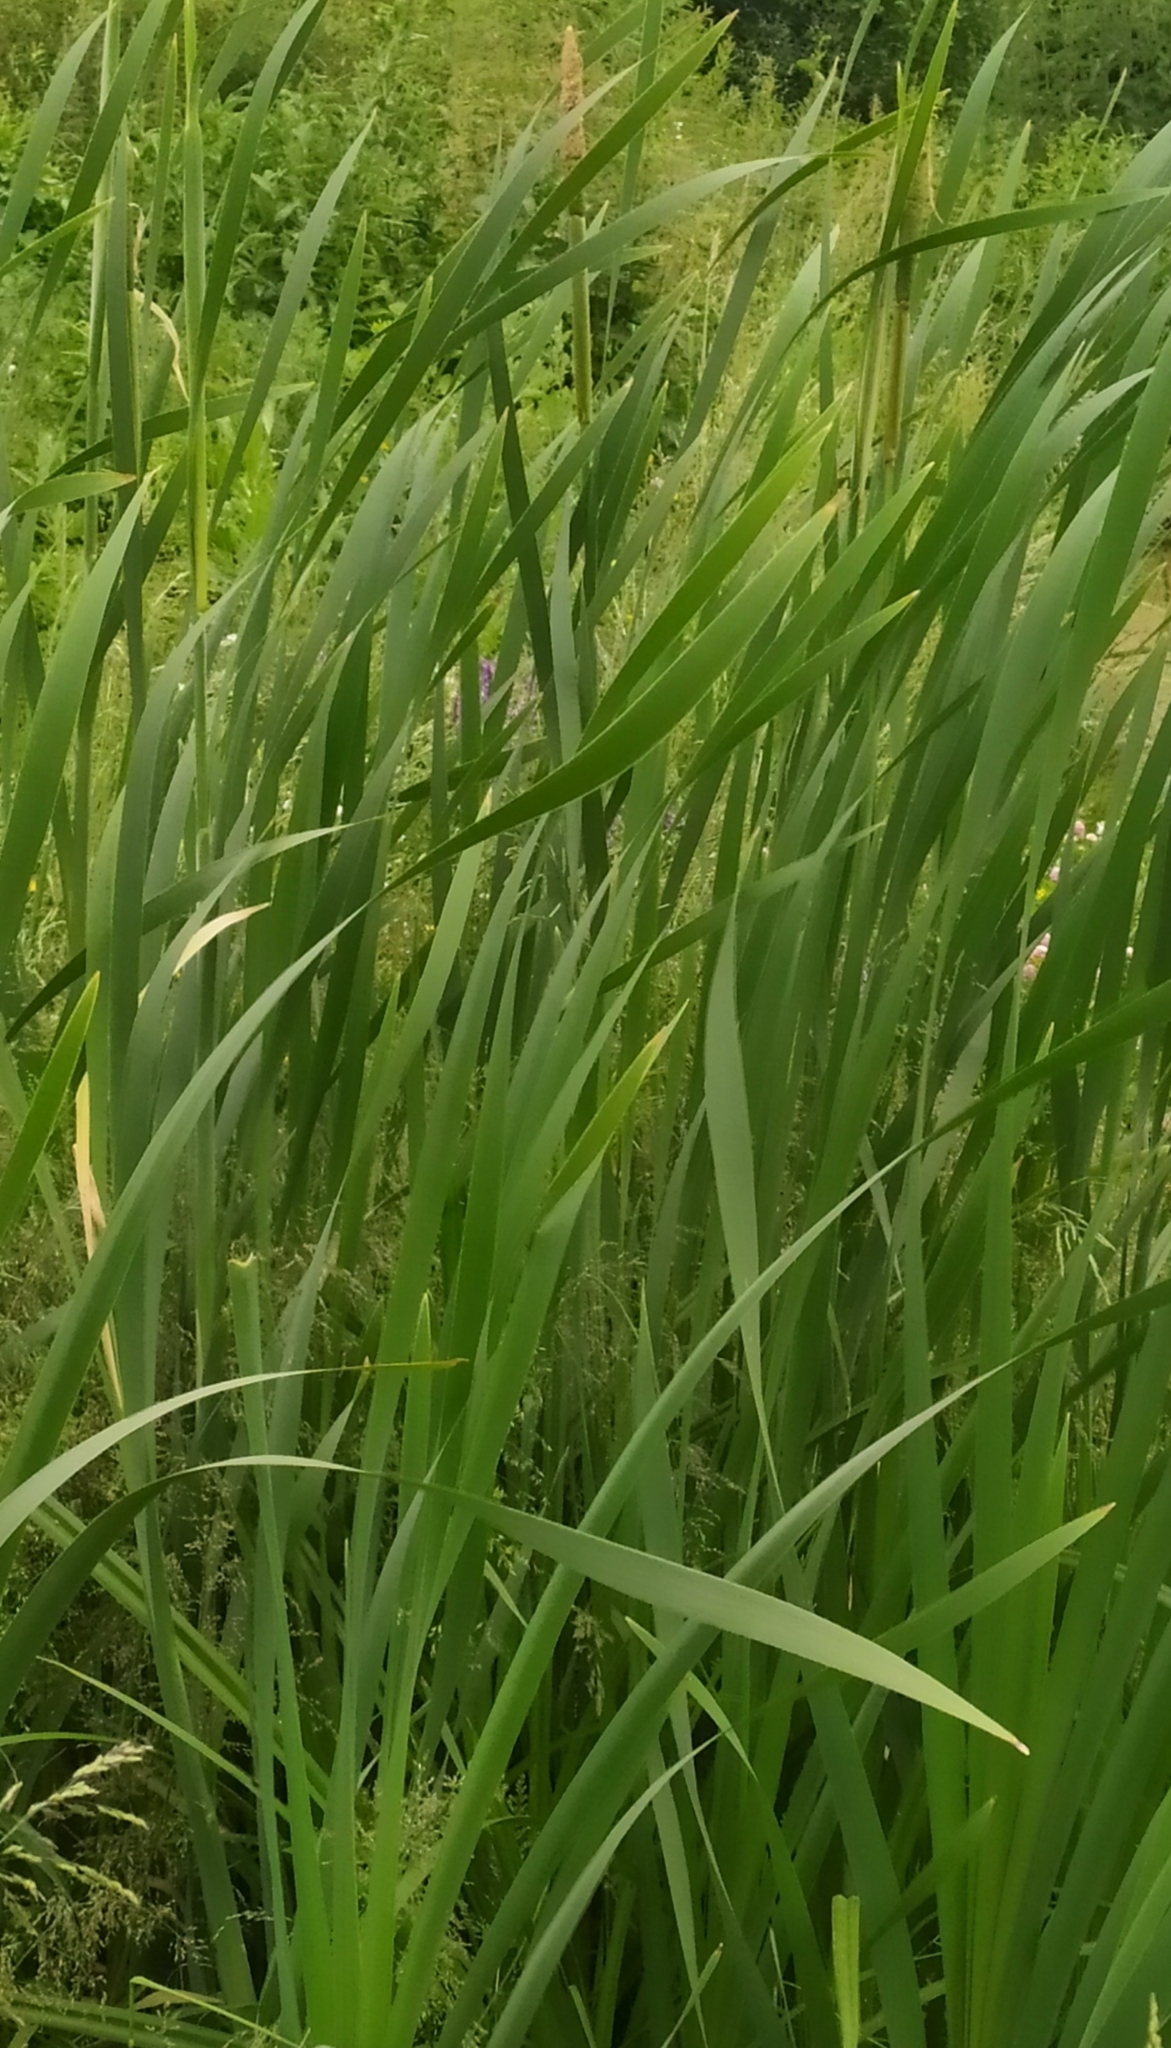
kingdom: Plantae
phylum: Tracheophyta
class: Liliopsida
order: Poales
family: Typhaceae
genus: Typha
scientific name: Typha latifolia
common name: Broadleaf cattail
